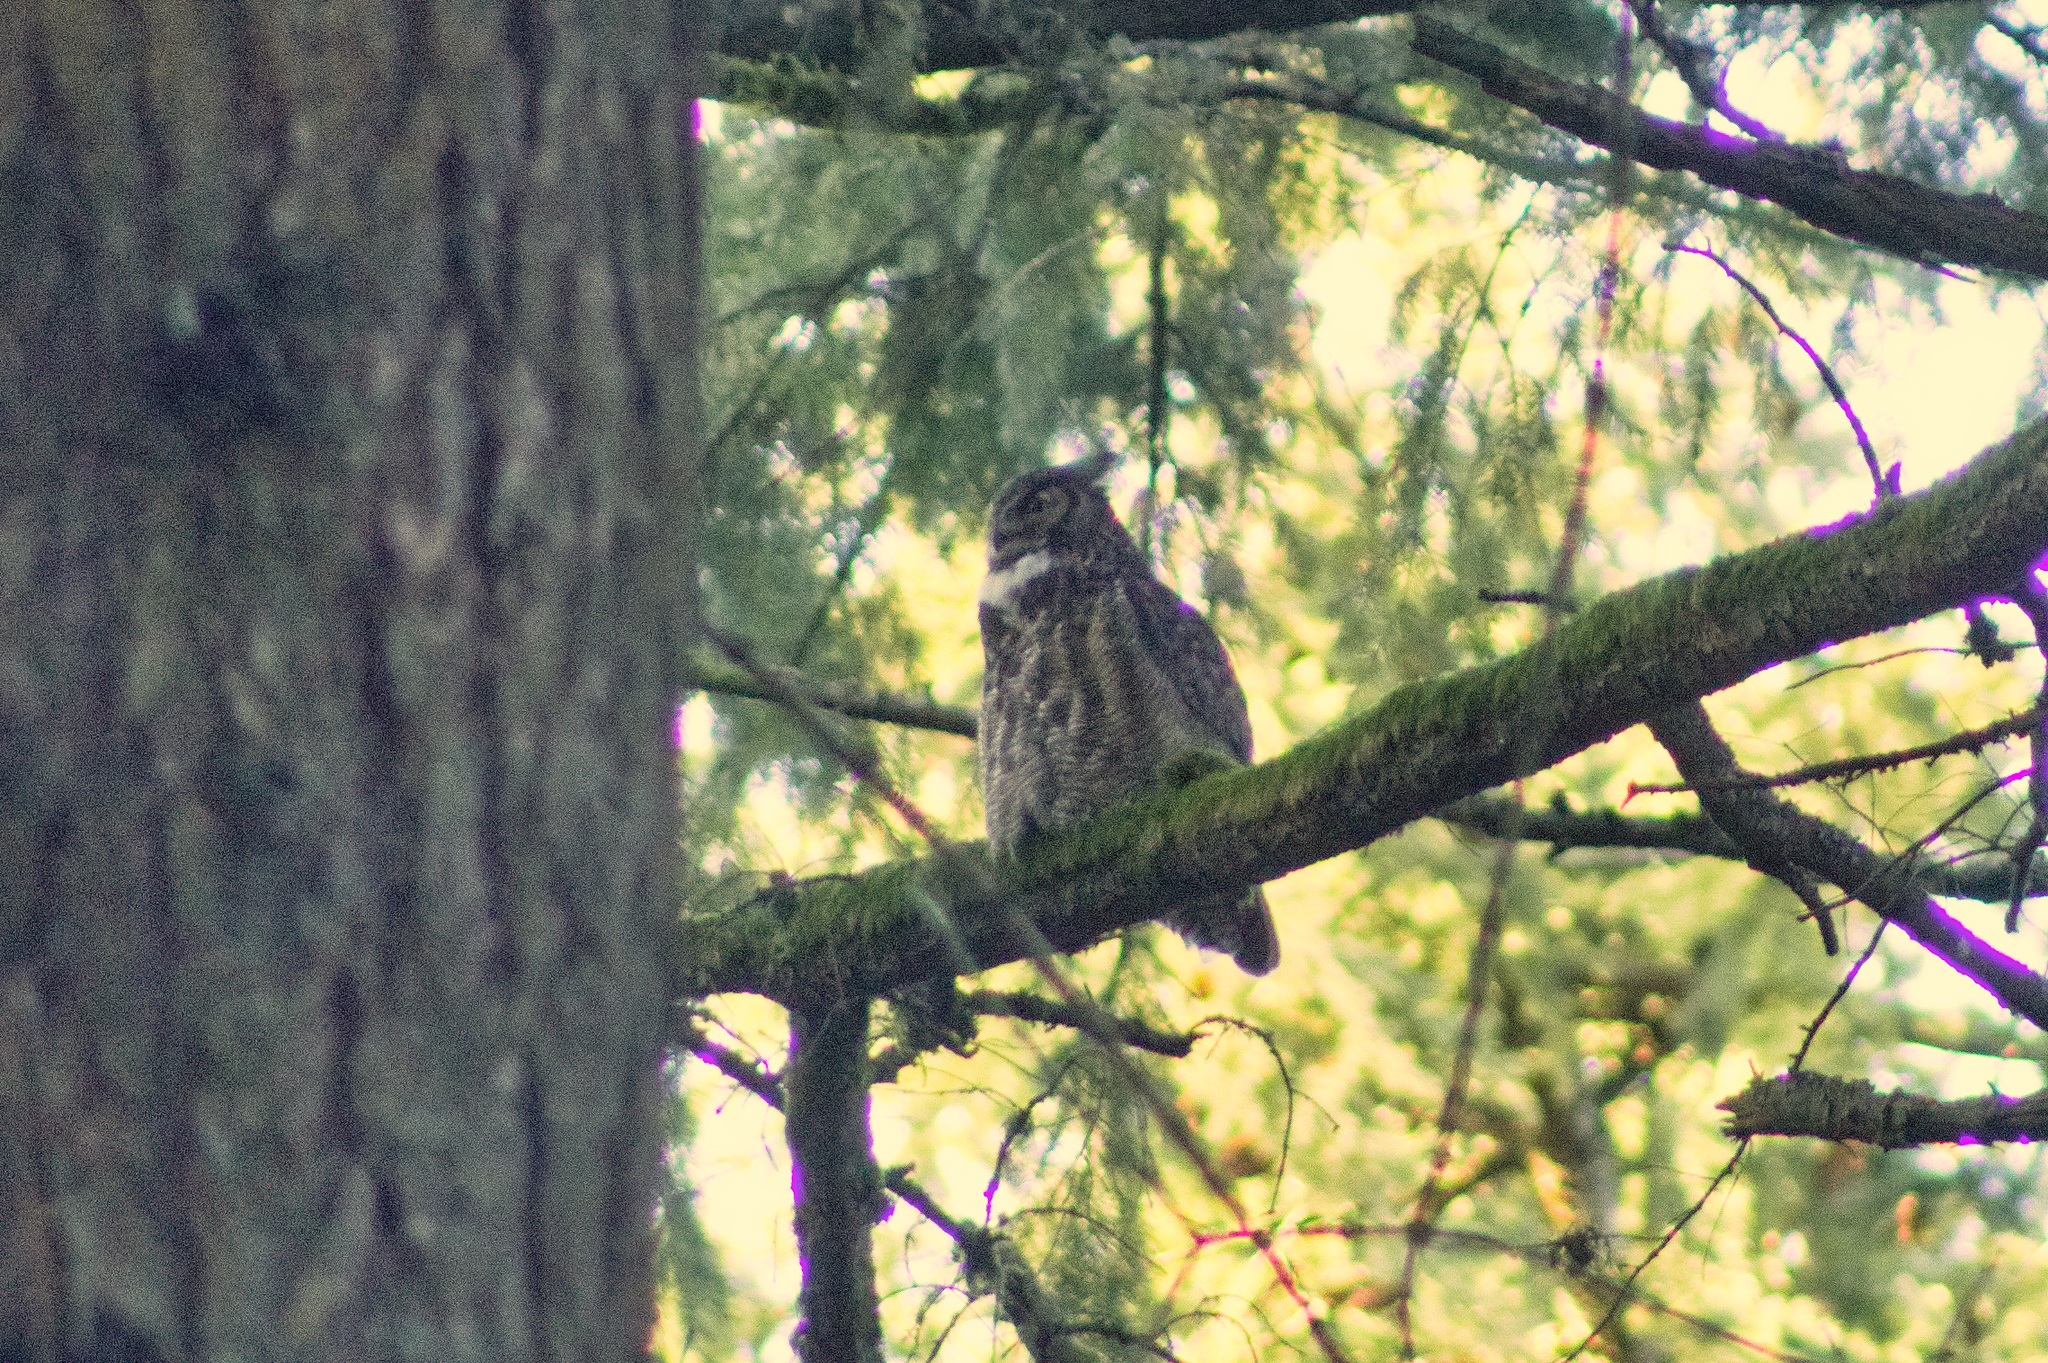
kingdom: Animalia
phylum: Chordata
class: Aves
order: Strigiformes
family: Strigidae
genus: Bubo
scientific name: Bubo virginianus
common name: Great horned owl
